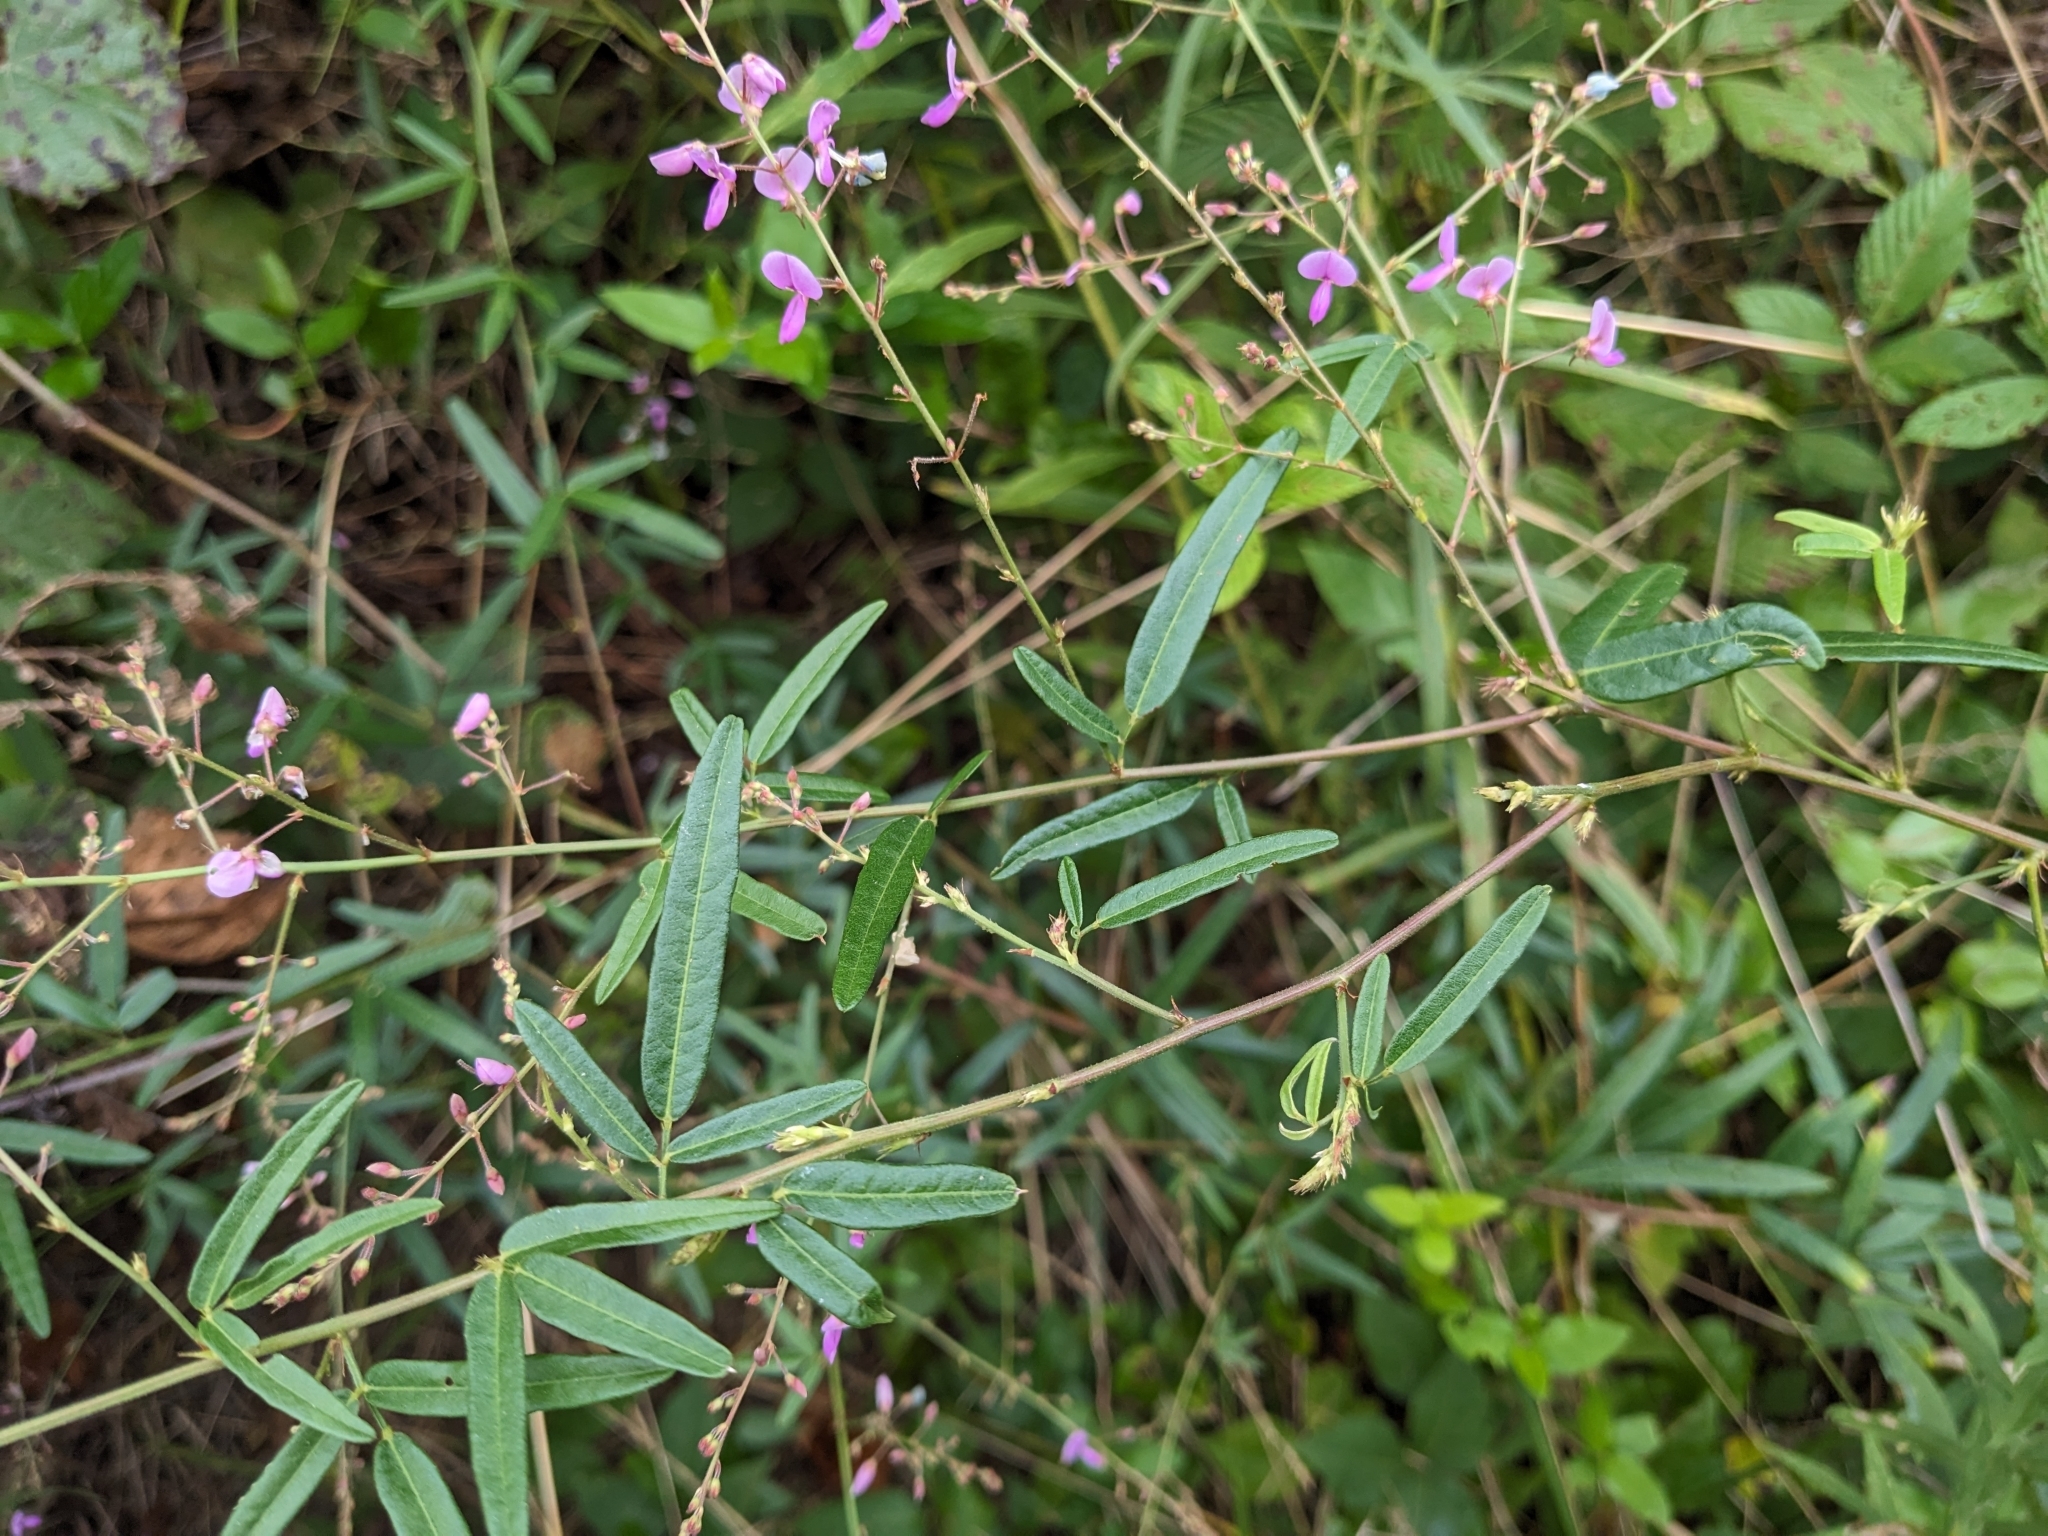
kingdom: Plantae
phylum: Tracheophyta
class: Magnoliopsida
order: Fabales
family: Fabaceae
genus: Desmodium
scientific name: Desmodium paniculatum
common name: Panicled tick-clover
